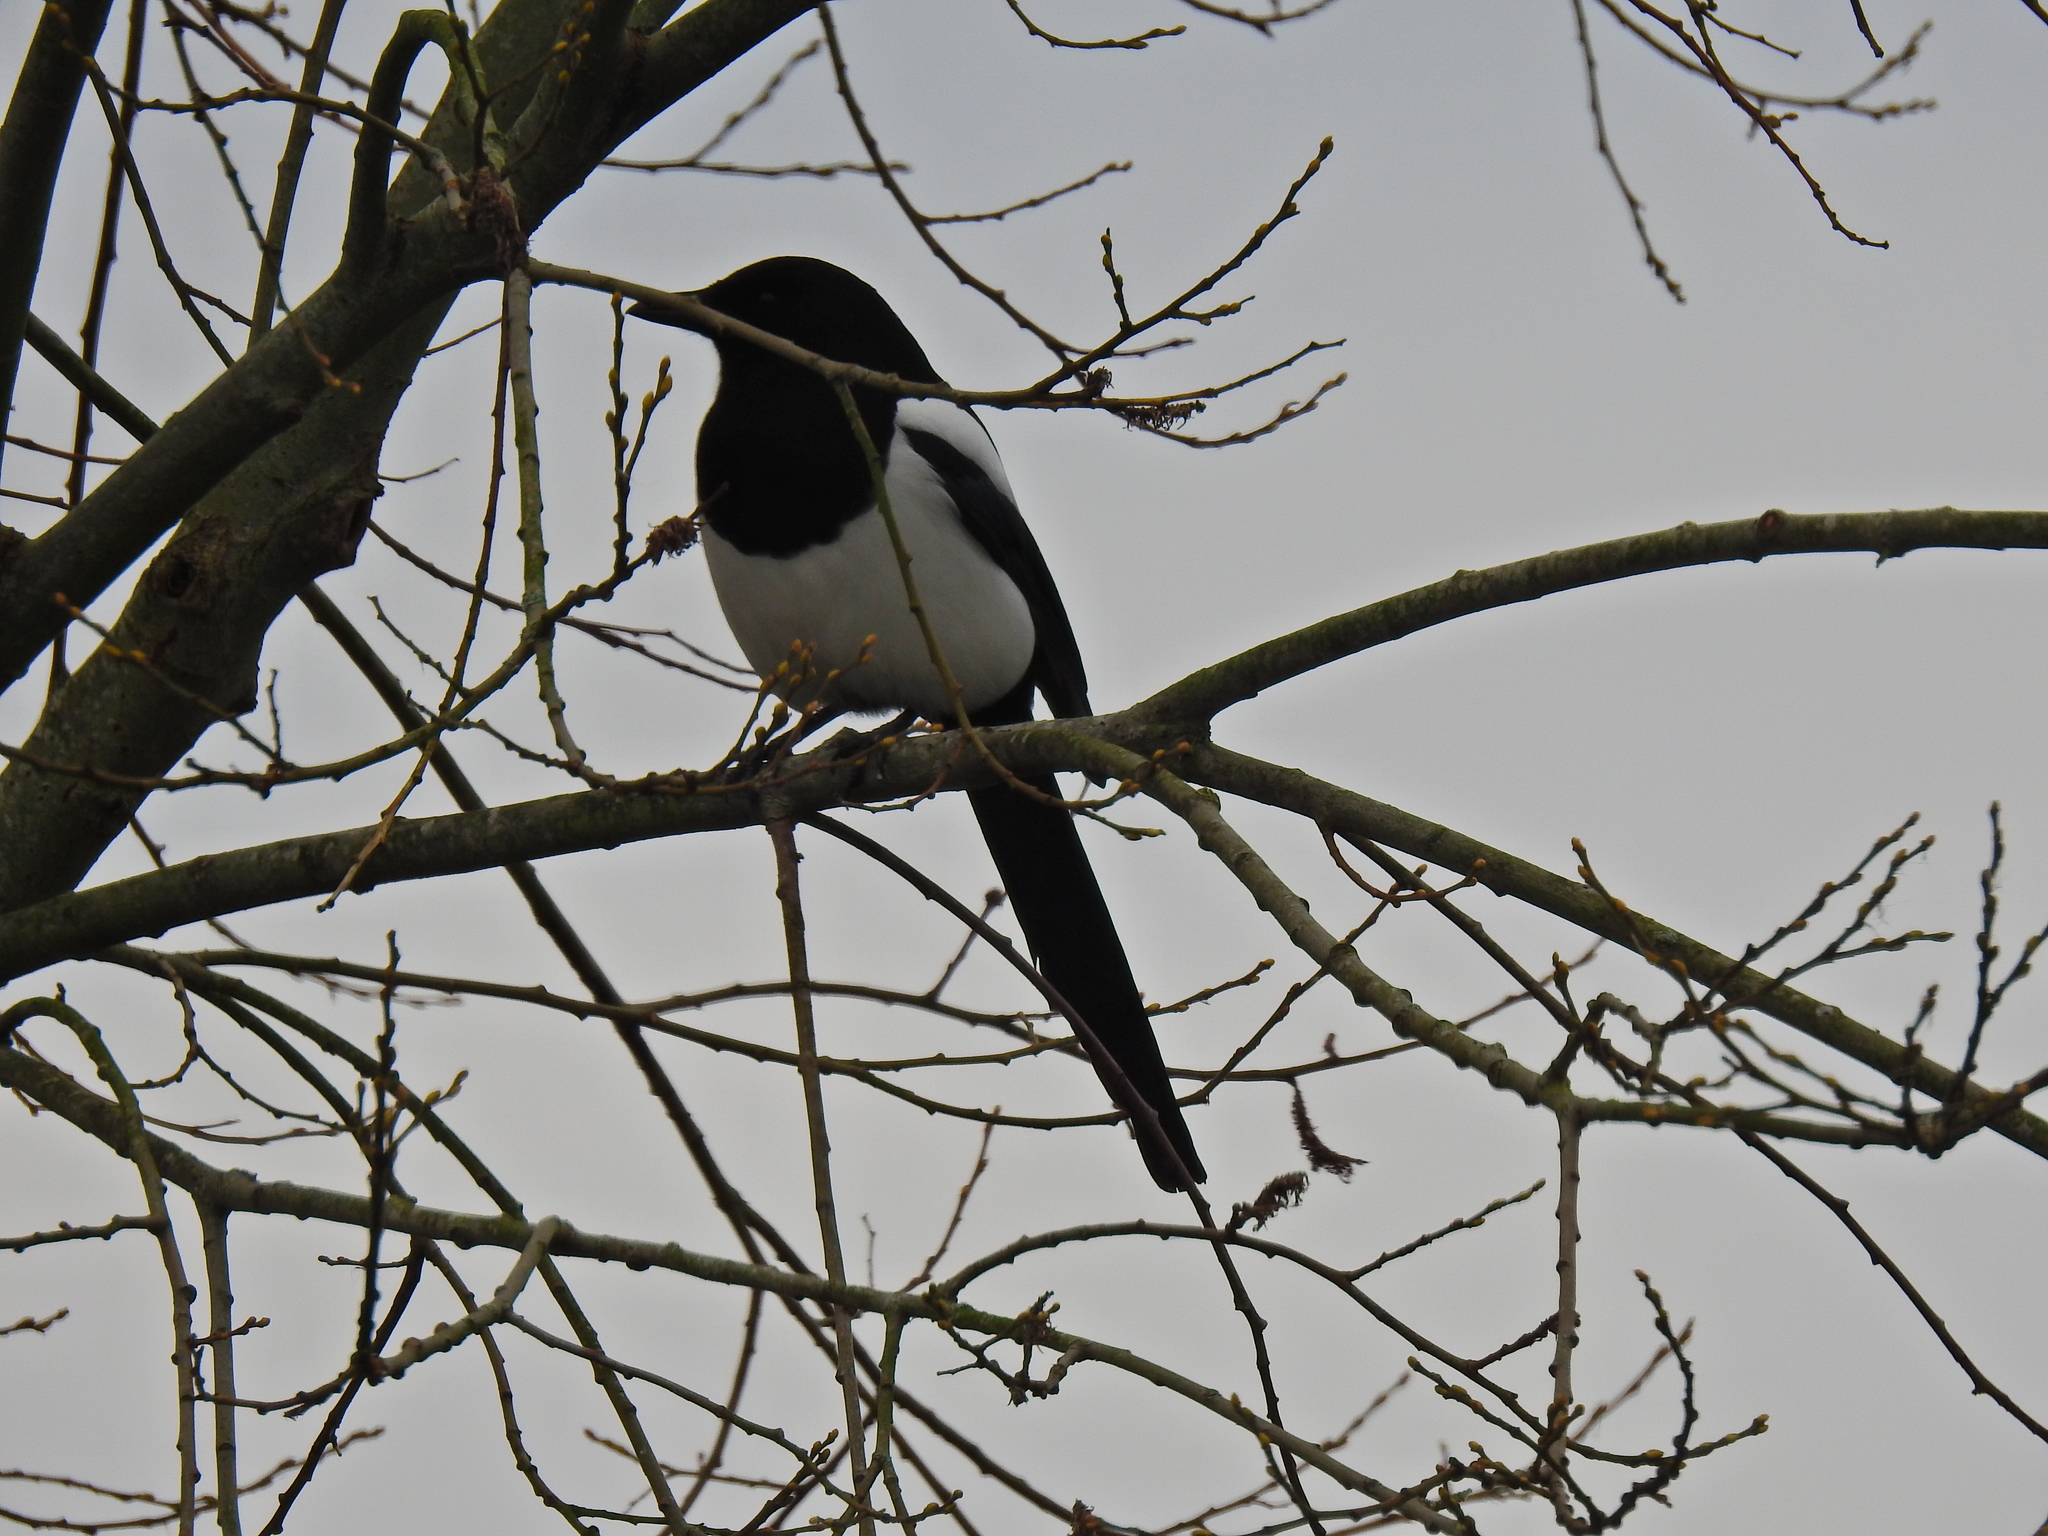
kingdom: Animalia
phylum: Chordata
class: Aves
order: Passeriformes
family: Corvidae
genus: Pica
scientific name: Pica pica
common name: Eurasian magpie
